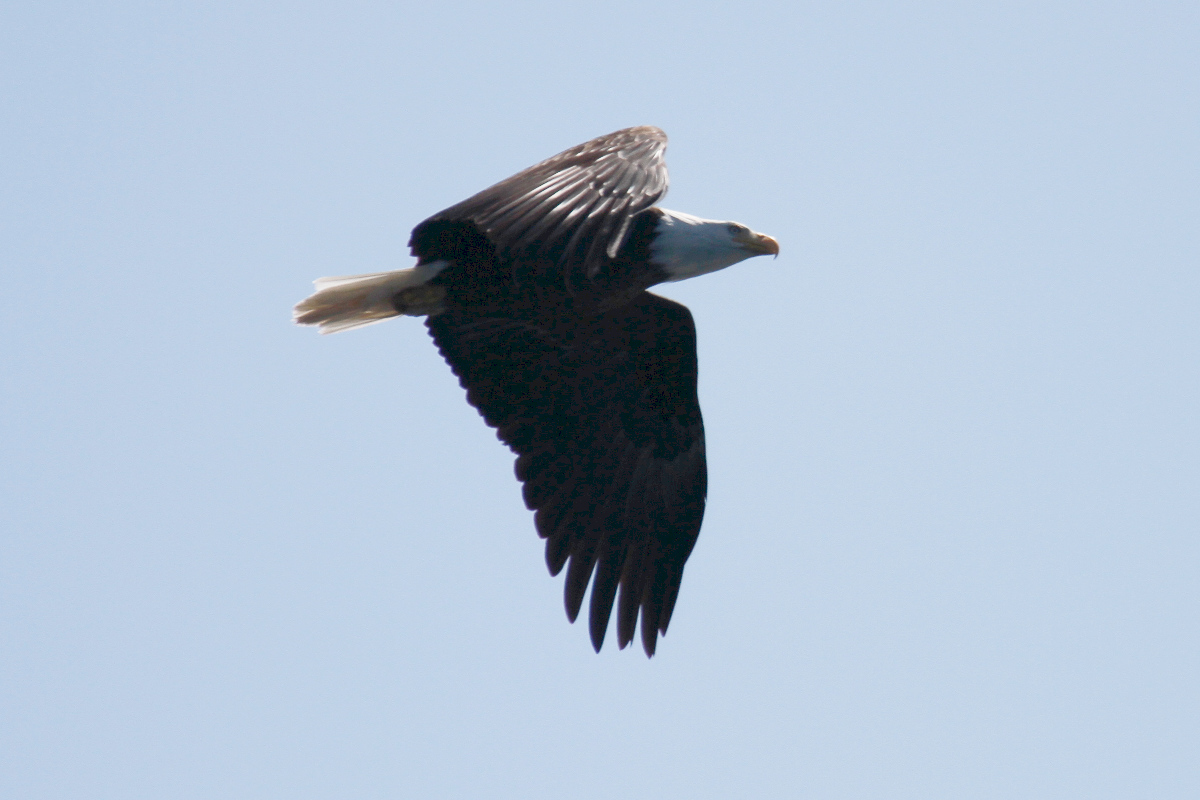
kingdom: Animalia
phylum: Chordata
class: Aves
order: Accipitriformes
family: Accipitridae
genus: Haliaeetus
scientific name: Haliaeetus leucocephalus
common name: Bald eagle
